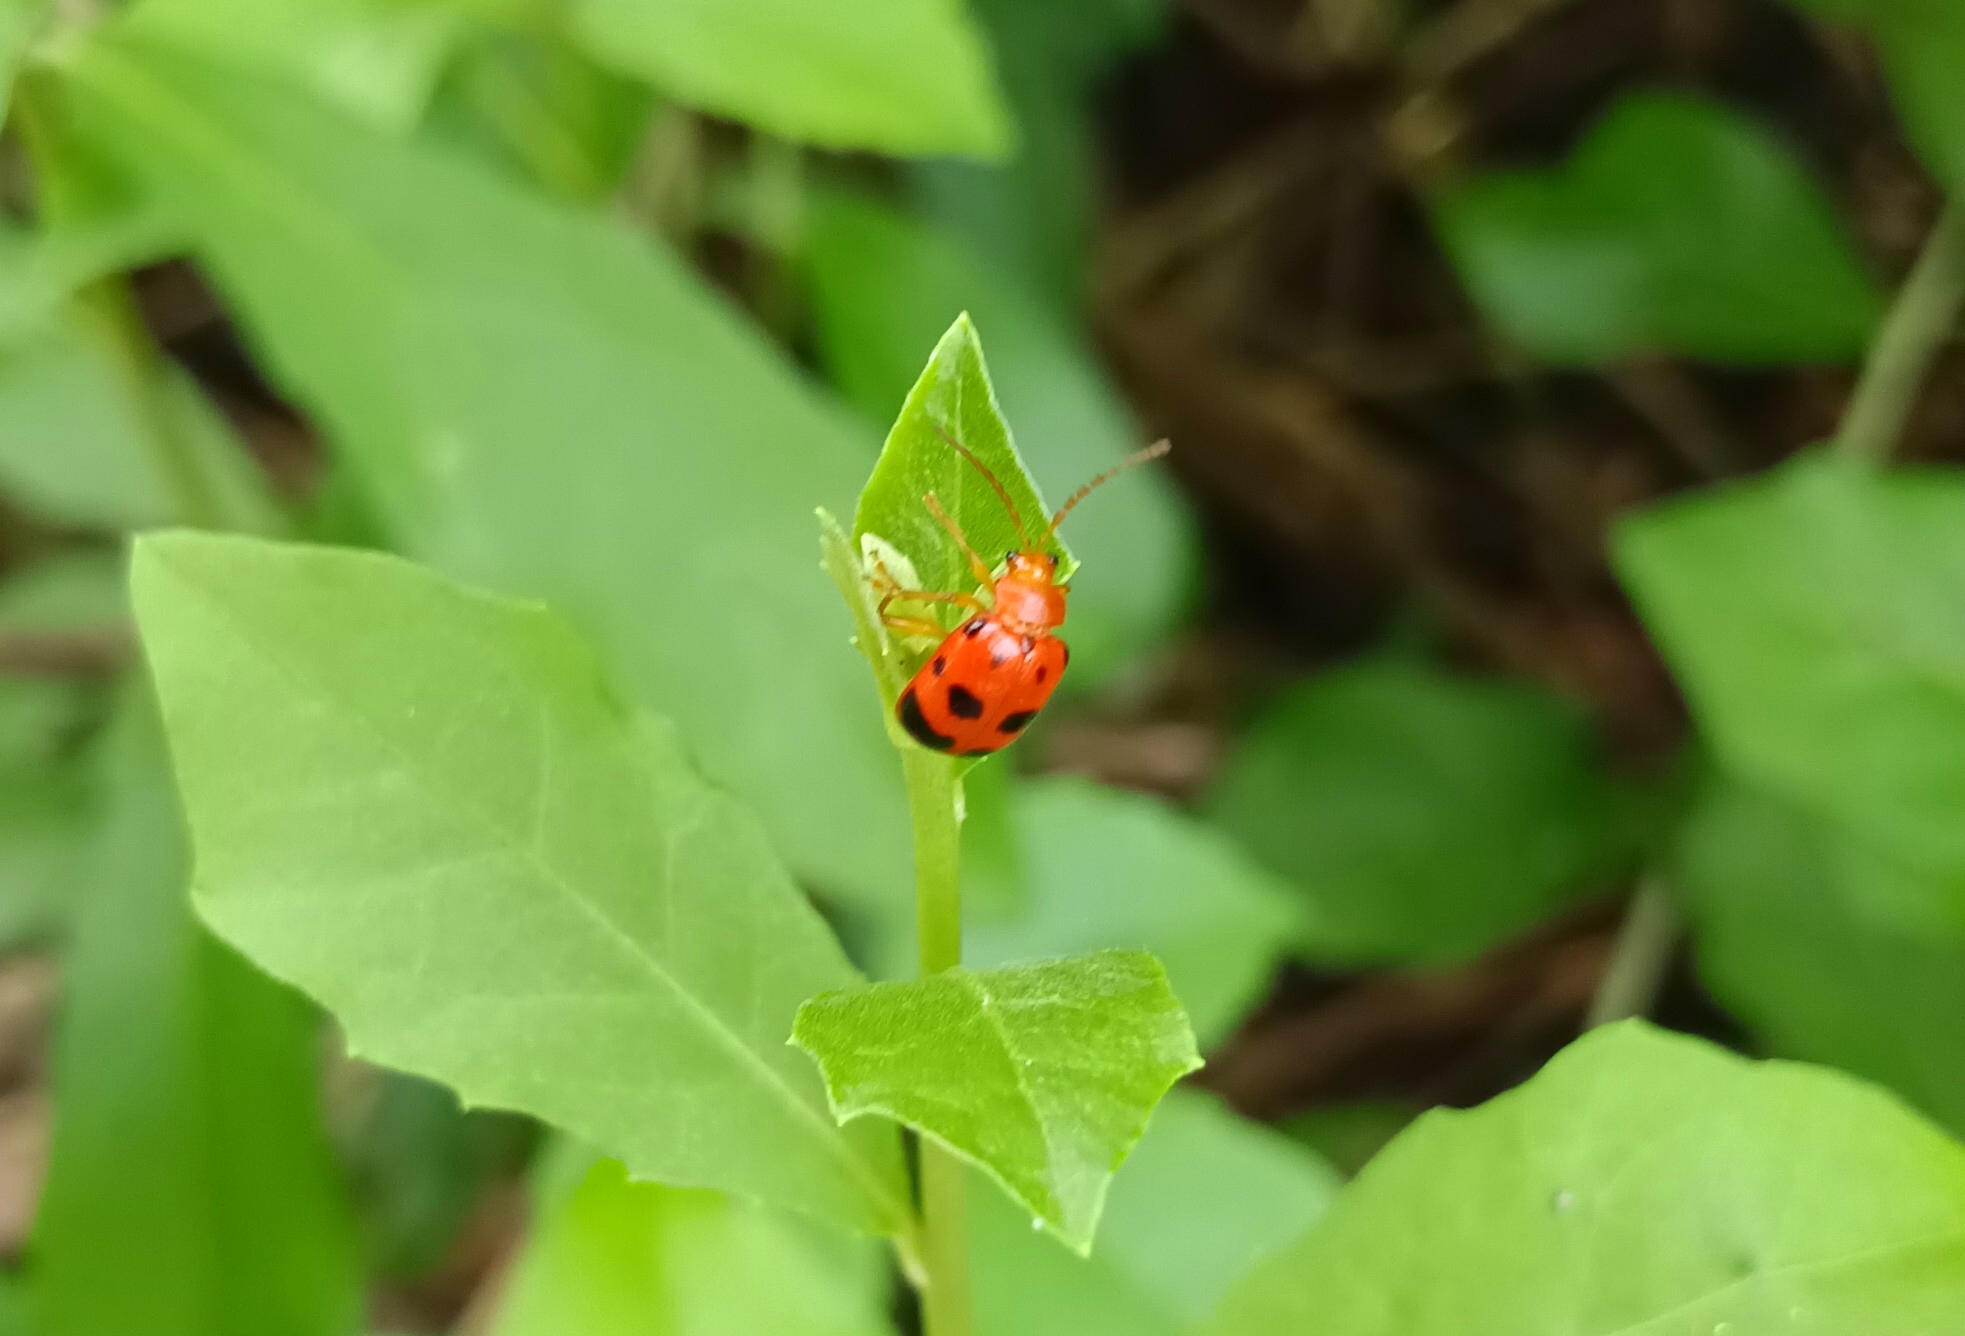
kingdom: Animalia
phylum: Arthropoda
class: Insecta
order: Coleoptera
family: Chrysomelidae
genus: Sphenoraia
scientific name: Sphenoraia
